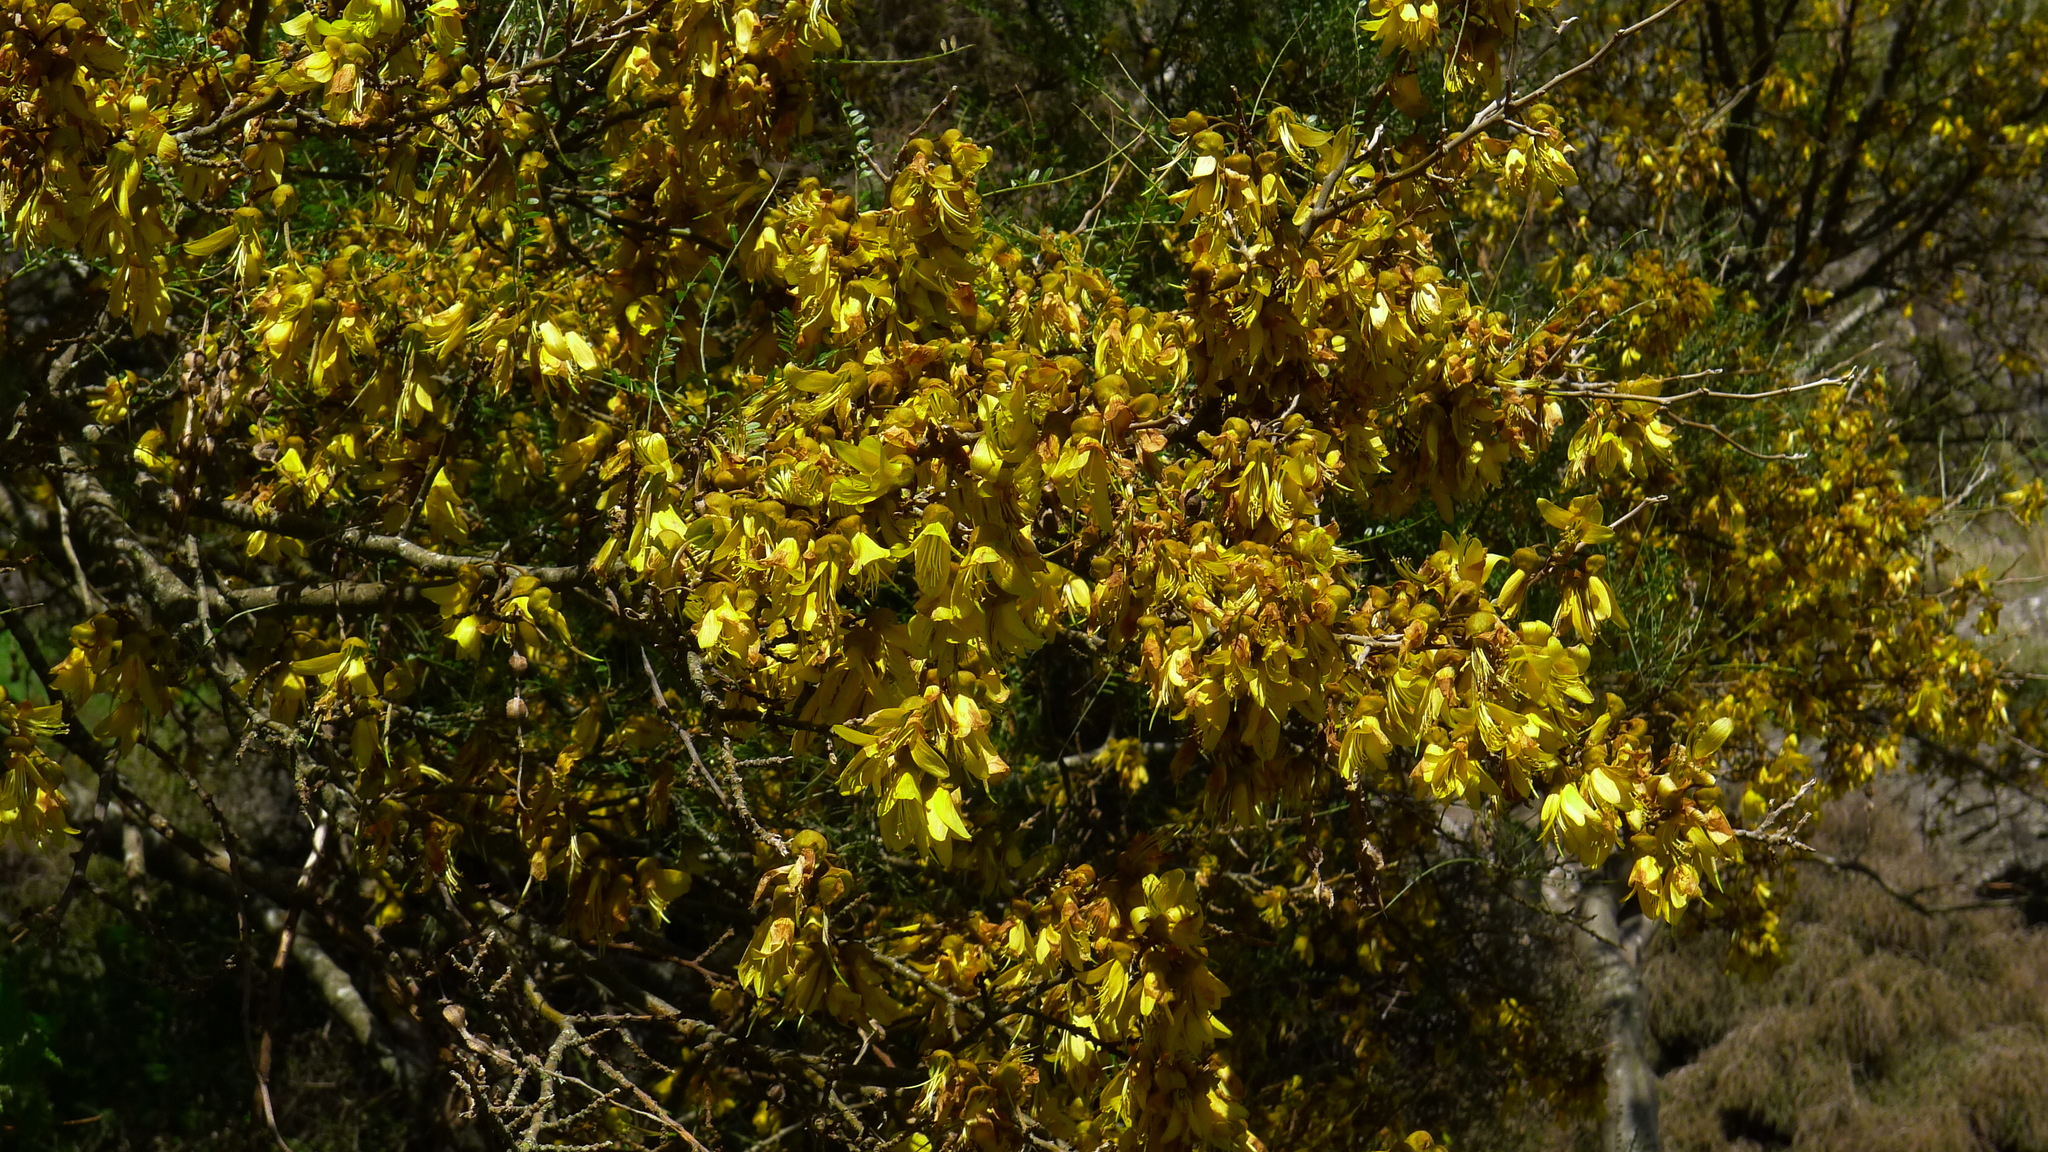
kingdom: Plantae
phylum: Tracheophyta
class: Magnoliopsida
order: Fabales
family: Fabaceae
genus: Sophora
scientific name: Sophora microphylla
